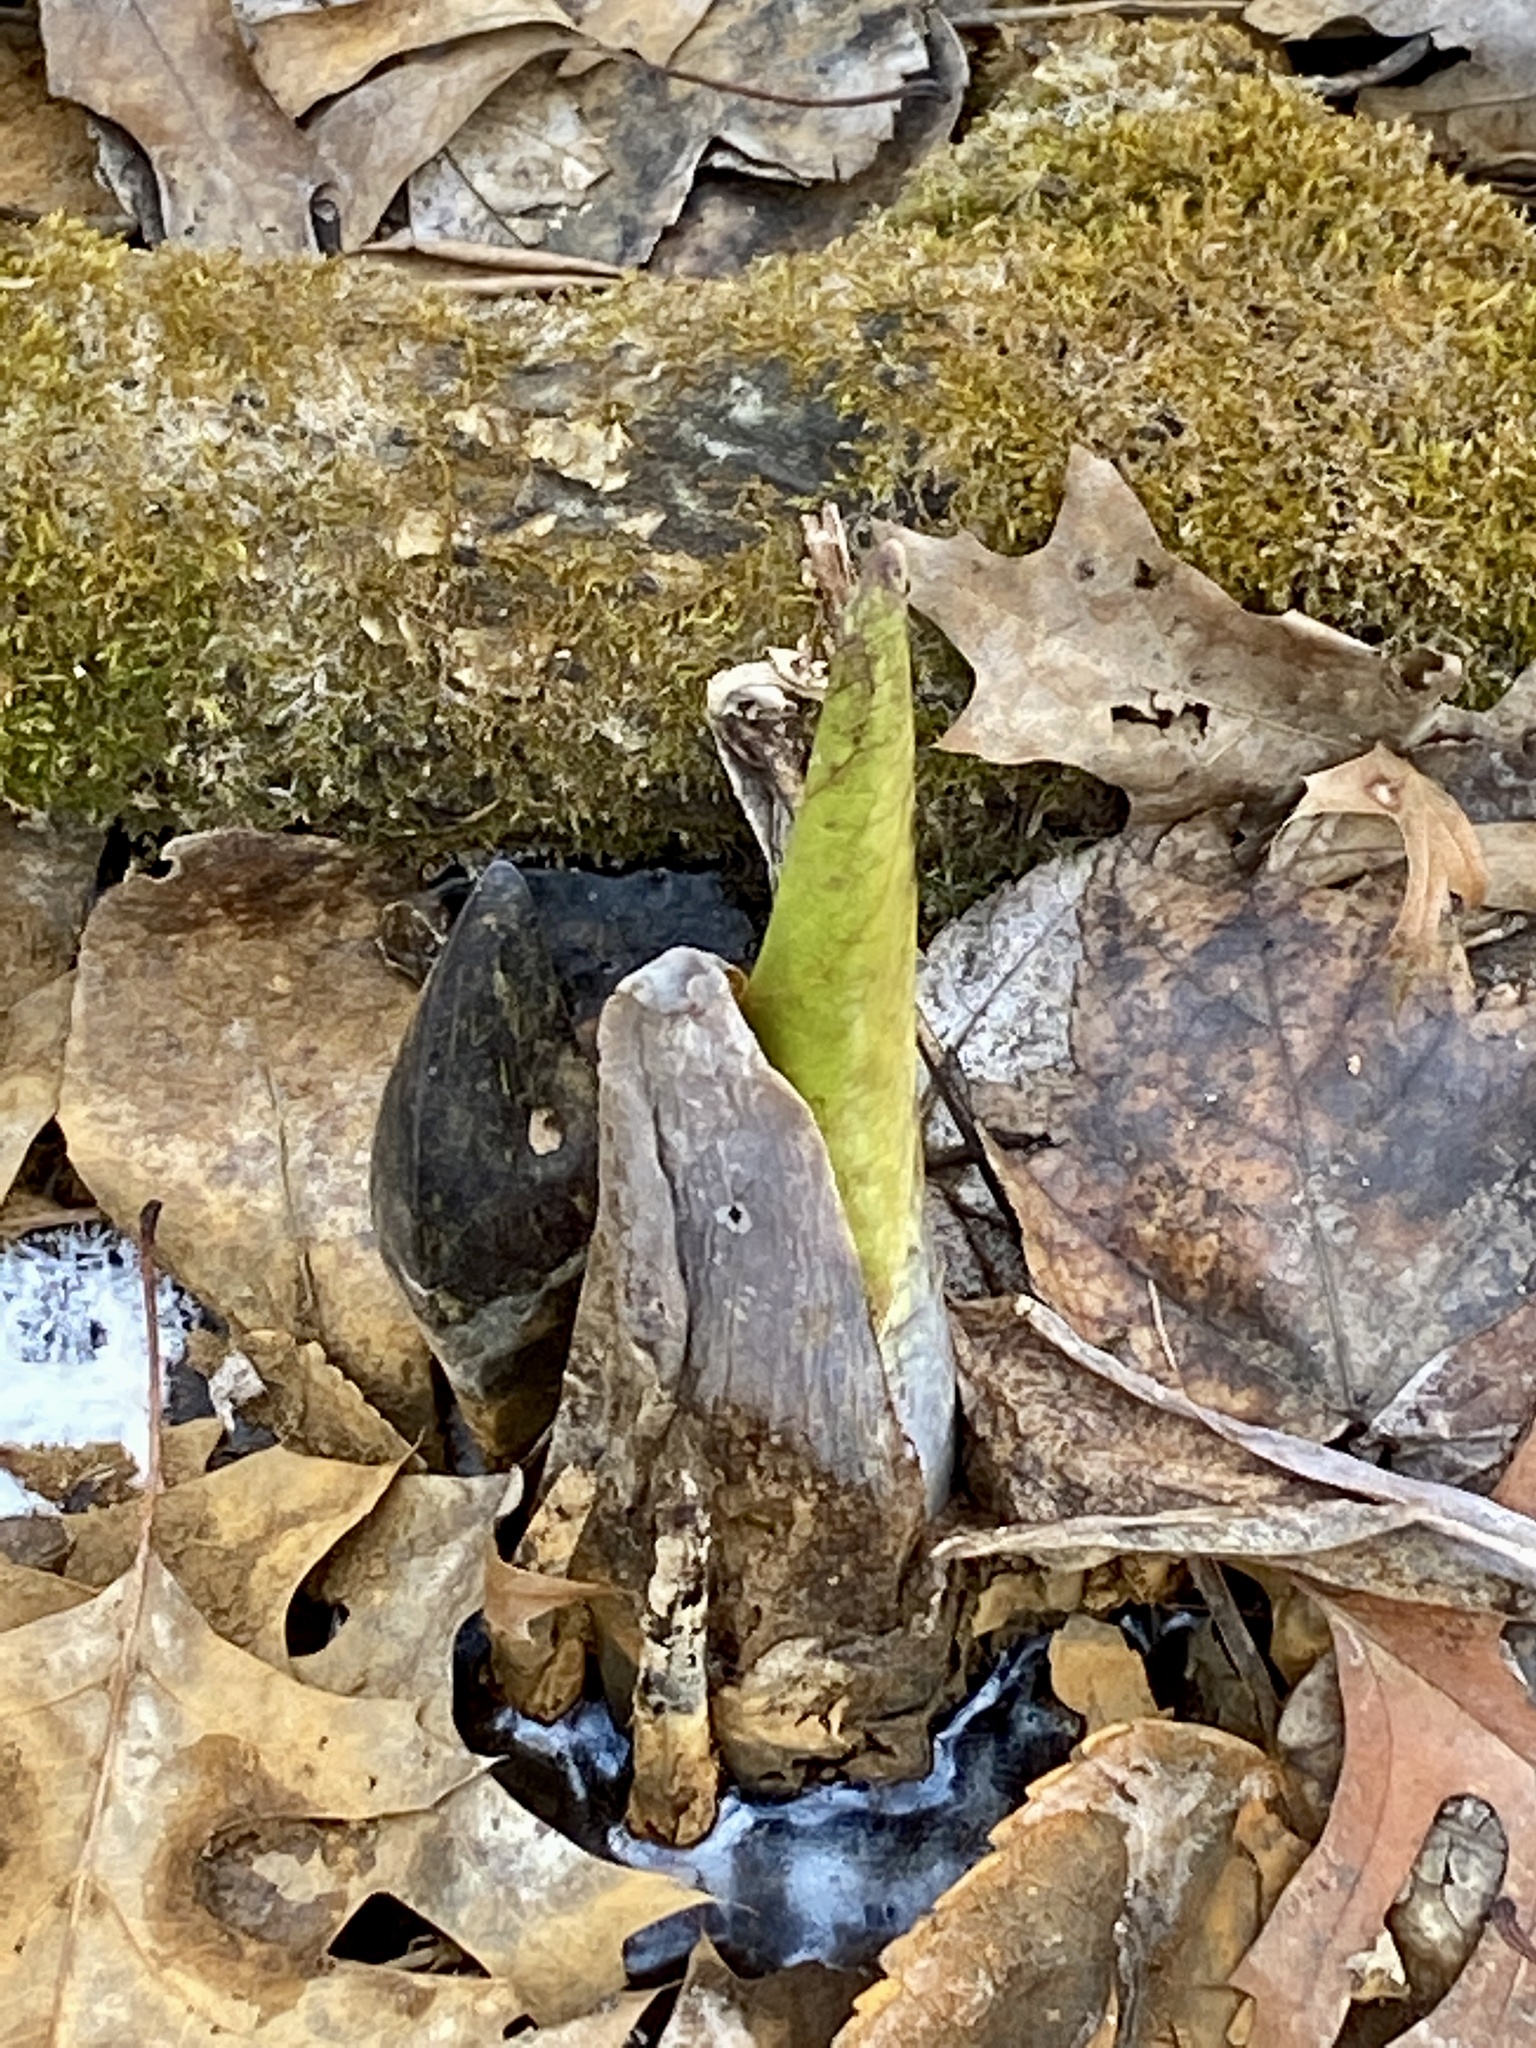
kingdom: Plantae
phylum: Tracheophyta
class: Liliopsida
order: Alismatales
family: Araceae
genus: Symplocarpus
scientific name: Symplocarpus foetidus
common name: Eastern skunk cabbage
